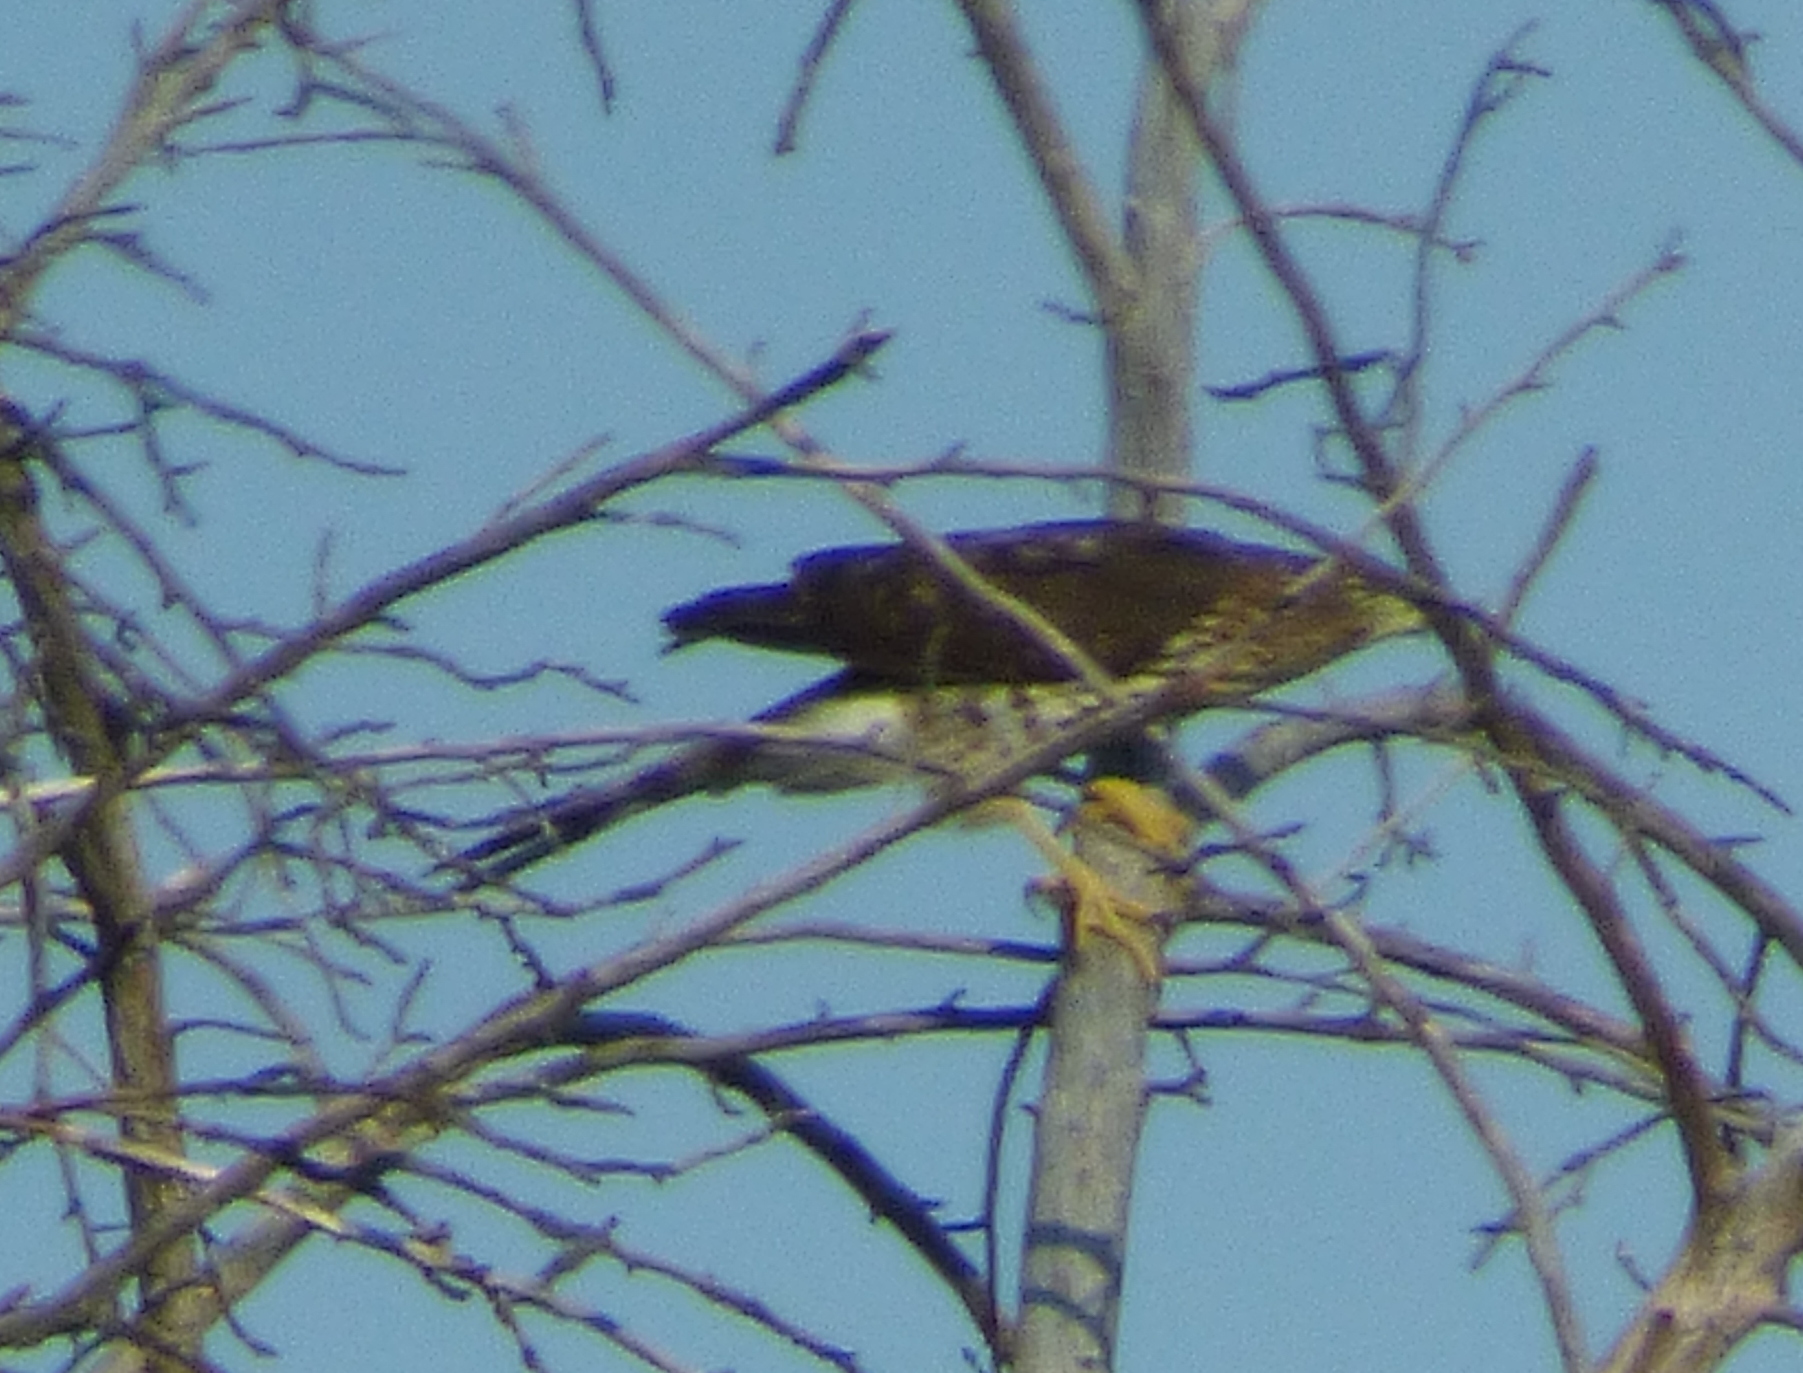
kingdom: Animalia
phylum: Chordata
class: Aves
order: Accipitriformes
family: Accipitridae
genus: Accipiter
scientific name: Accipiter cooperii
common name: Cooper's hawk
